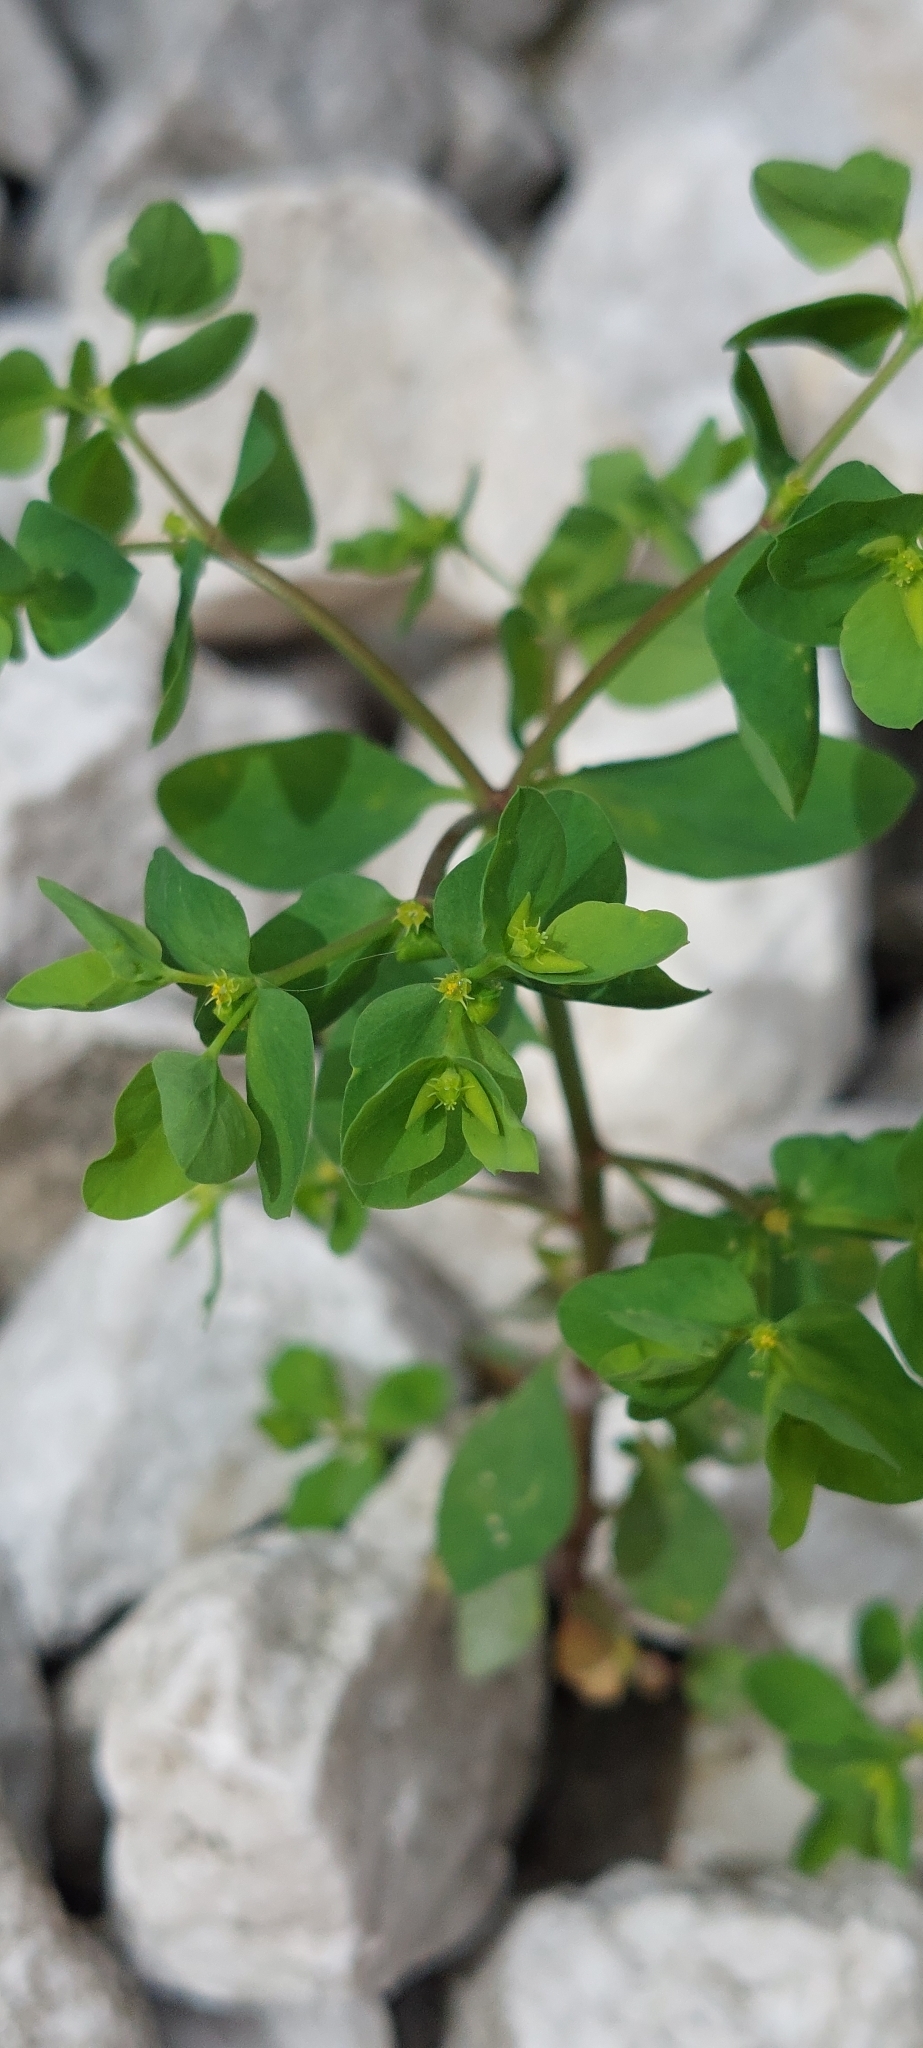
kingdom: Plantae
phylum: Tracheophyta
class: Magnoliopsida
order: Malpighiales
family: Euphorbiaceae
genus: Euphorbia
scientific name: Euphorbia peplus
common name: Petty spurge
